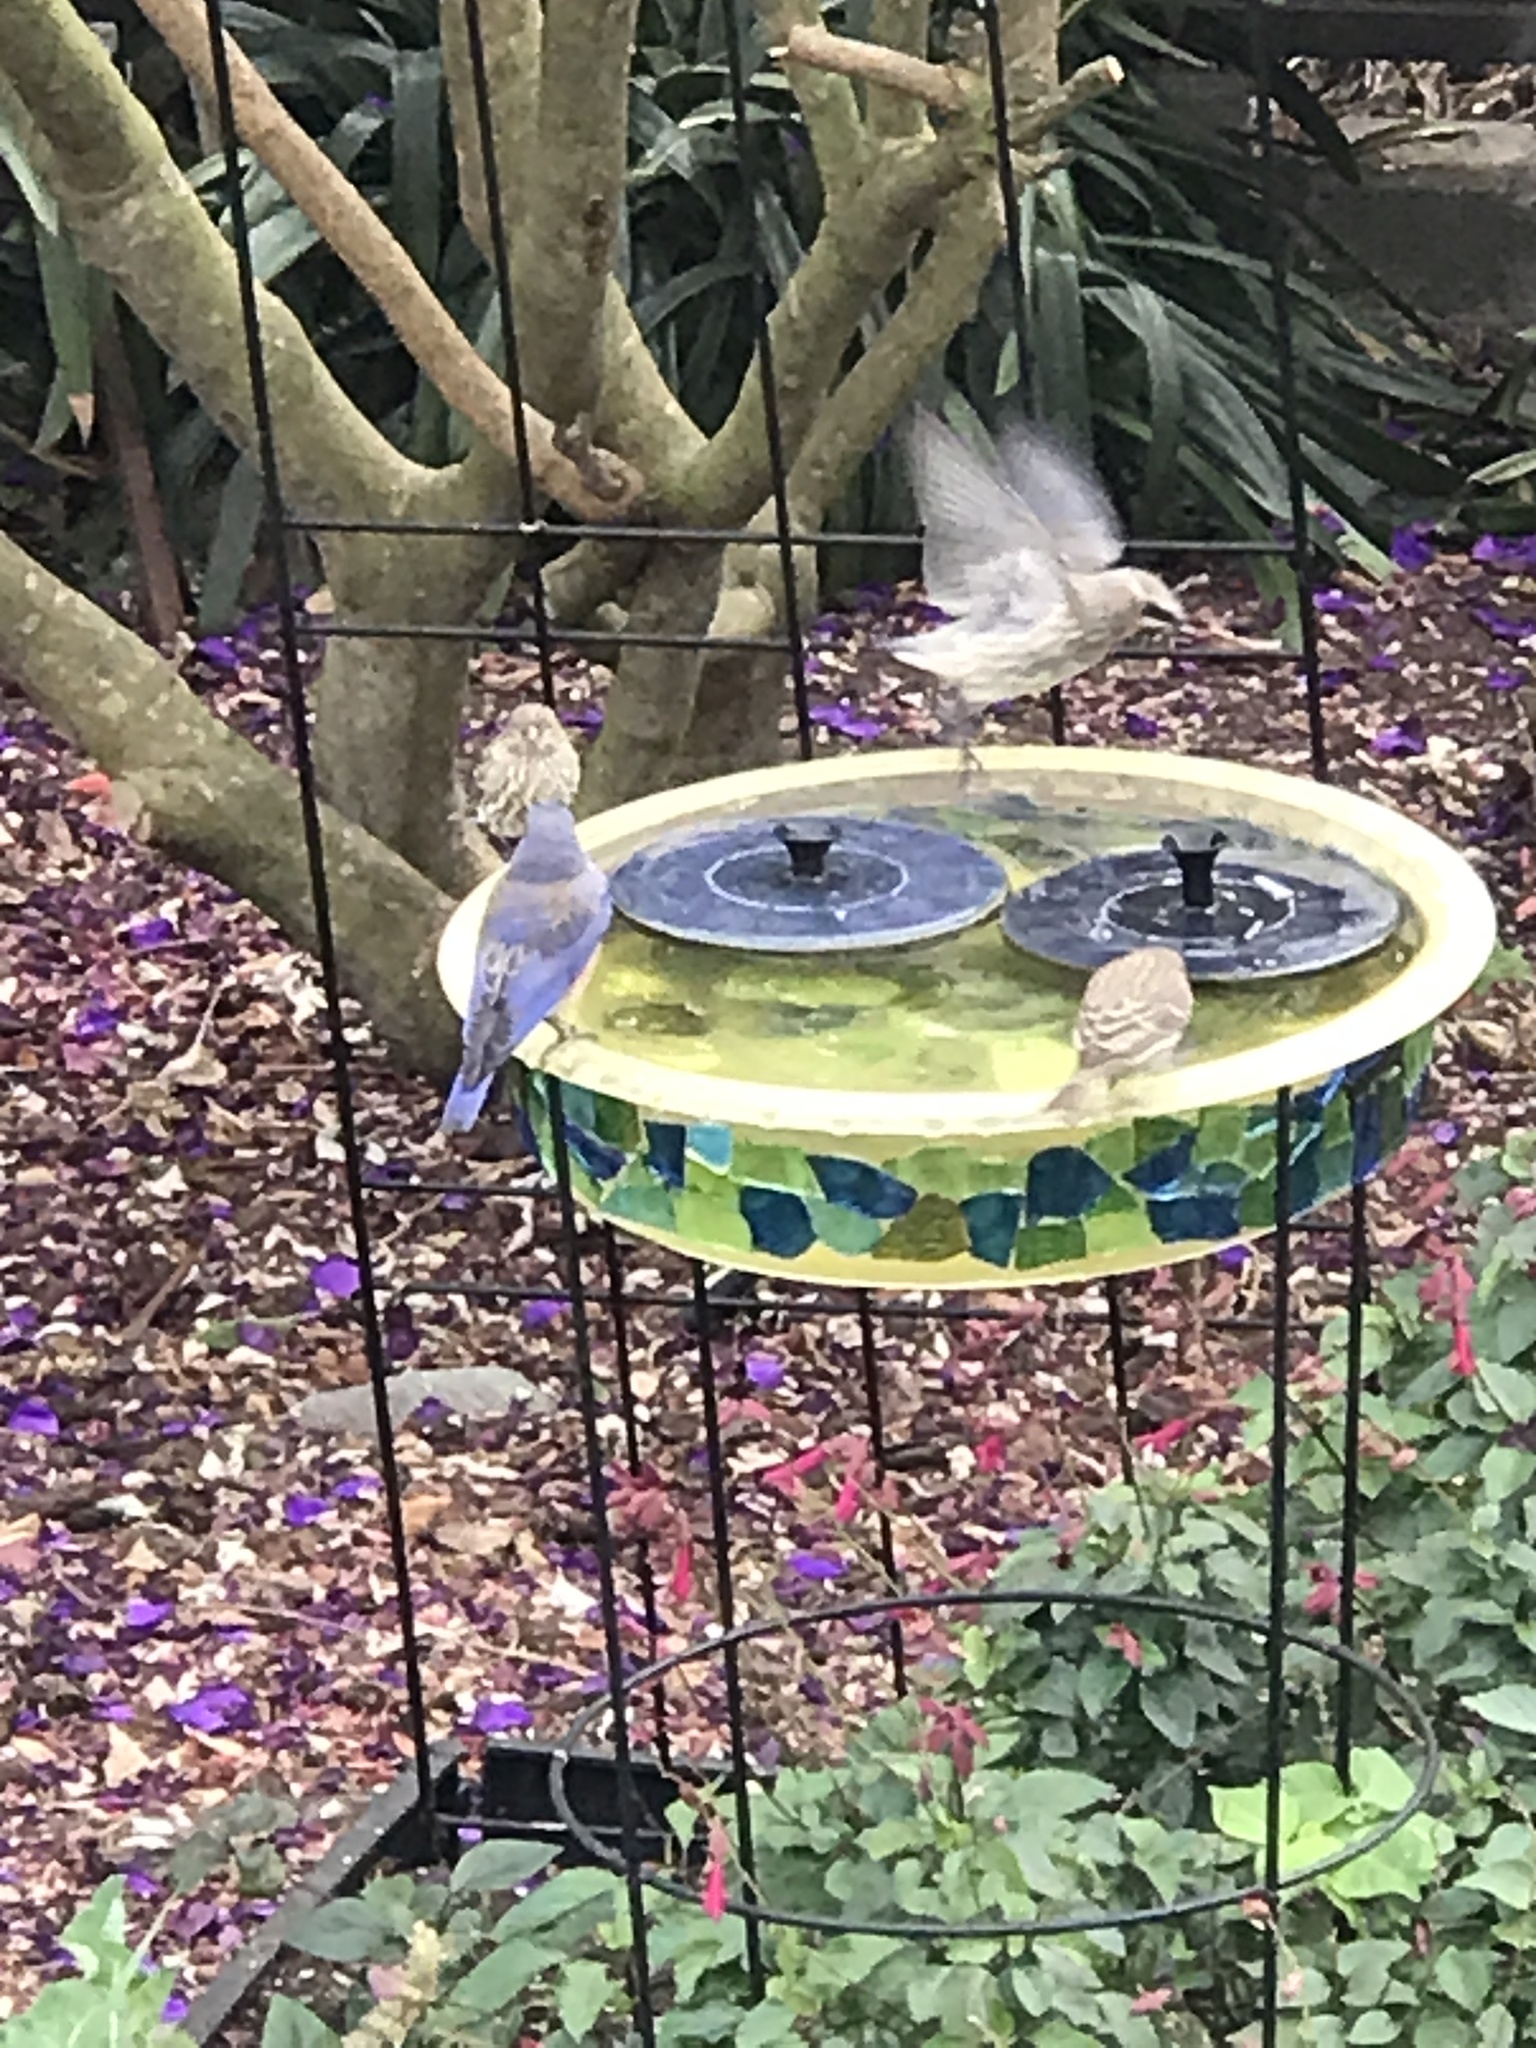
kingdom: Animalia
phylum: Chordata
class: Aves
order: Passeriformes
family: Turdidae
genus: Sialia
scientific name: Sialia mexicana
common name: Western bluebird
